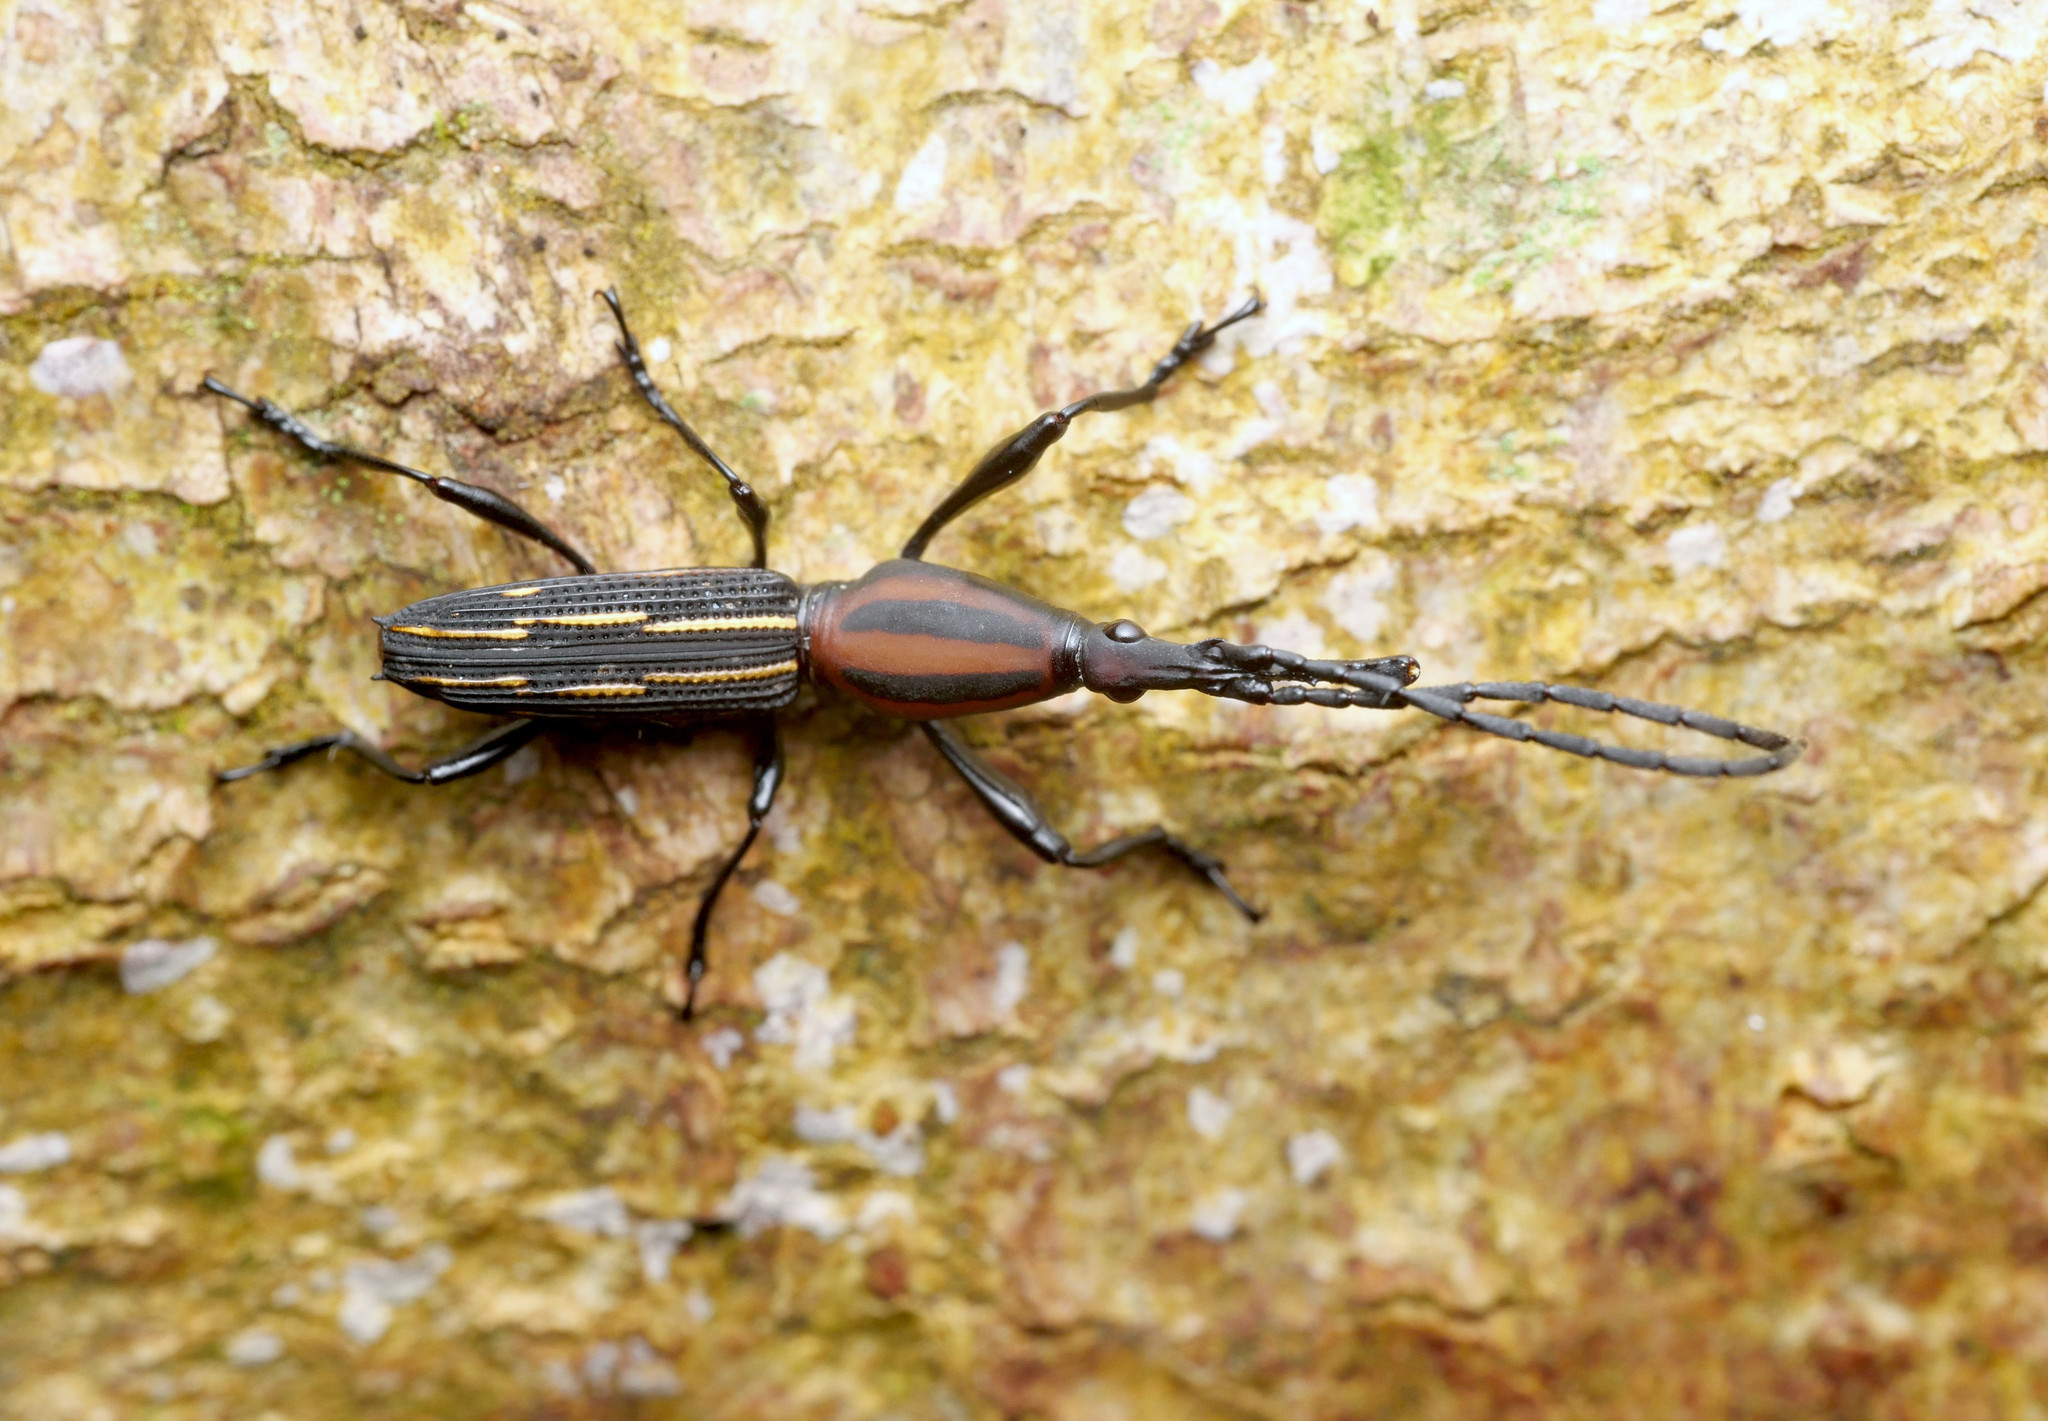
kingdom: Animalia
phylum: Arthropoda
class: Insecta
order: Coleoptera
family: Brentidae
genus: Raphirhynchus
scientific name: Raphirhynchus sexvittatus
